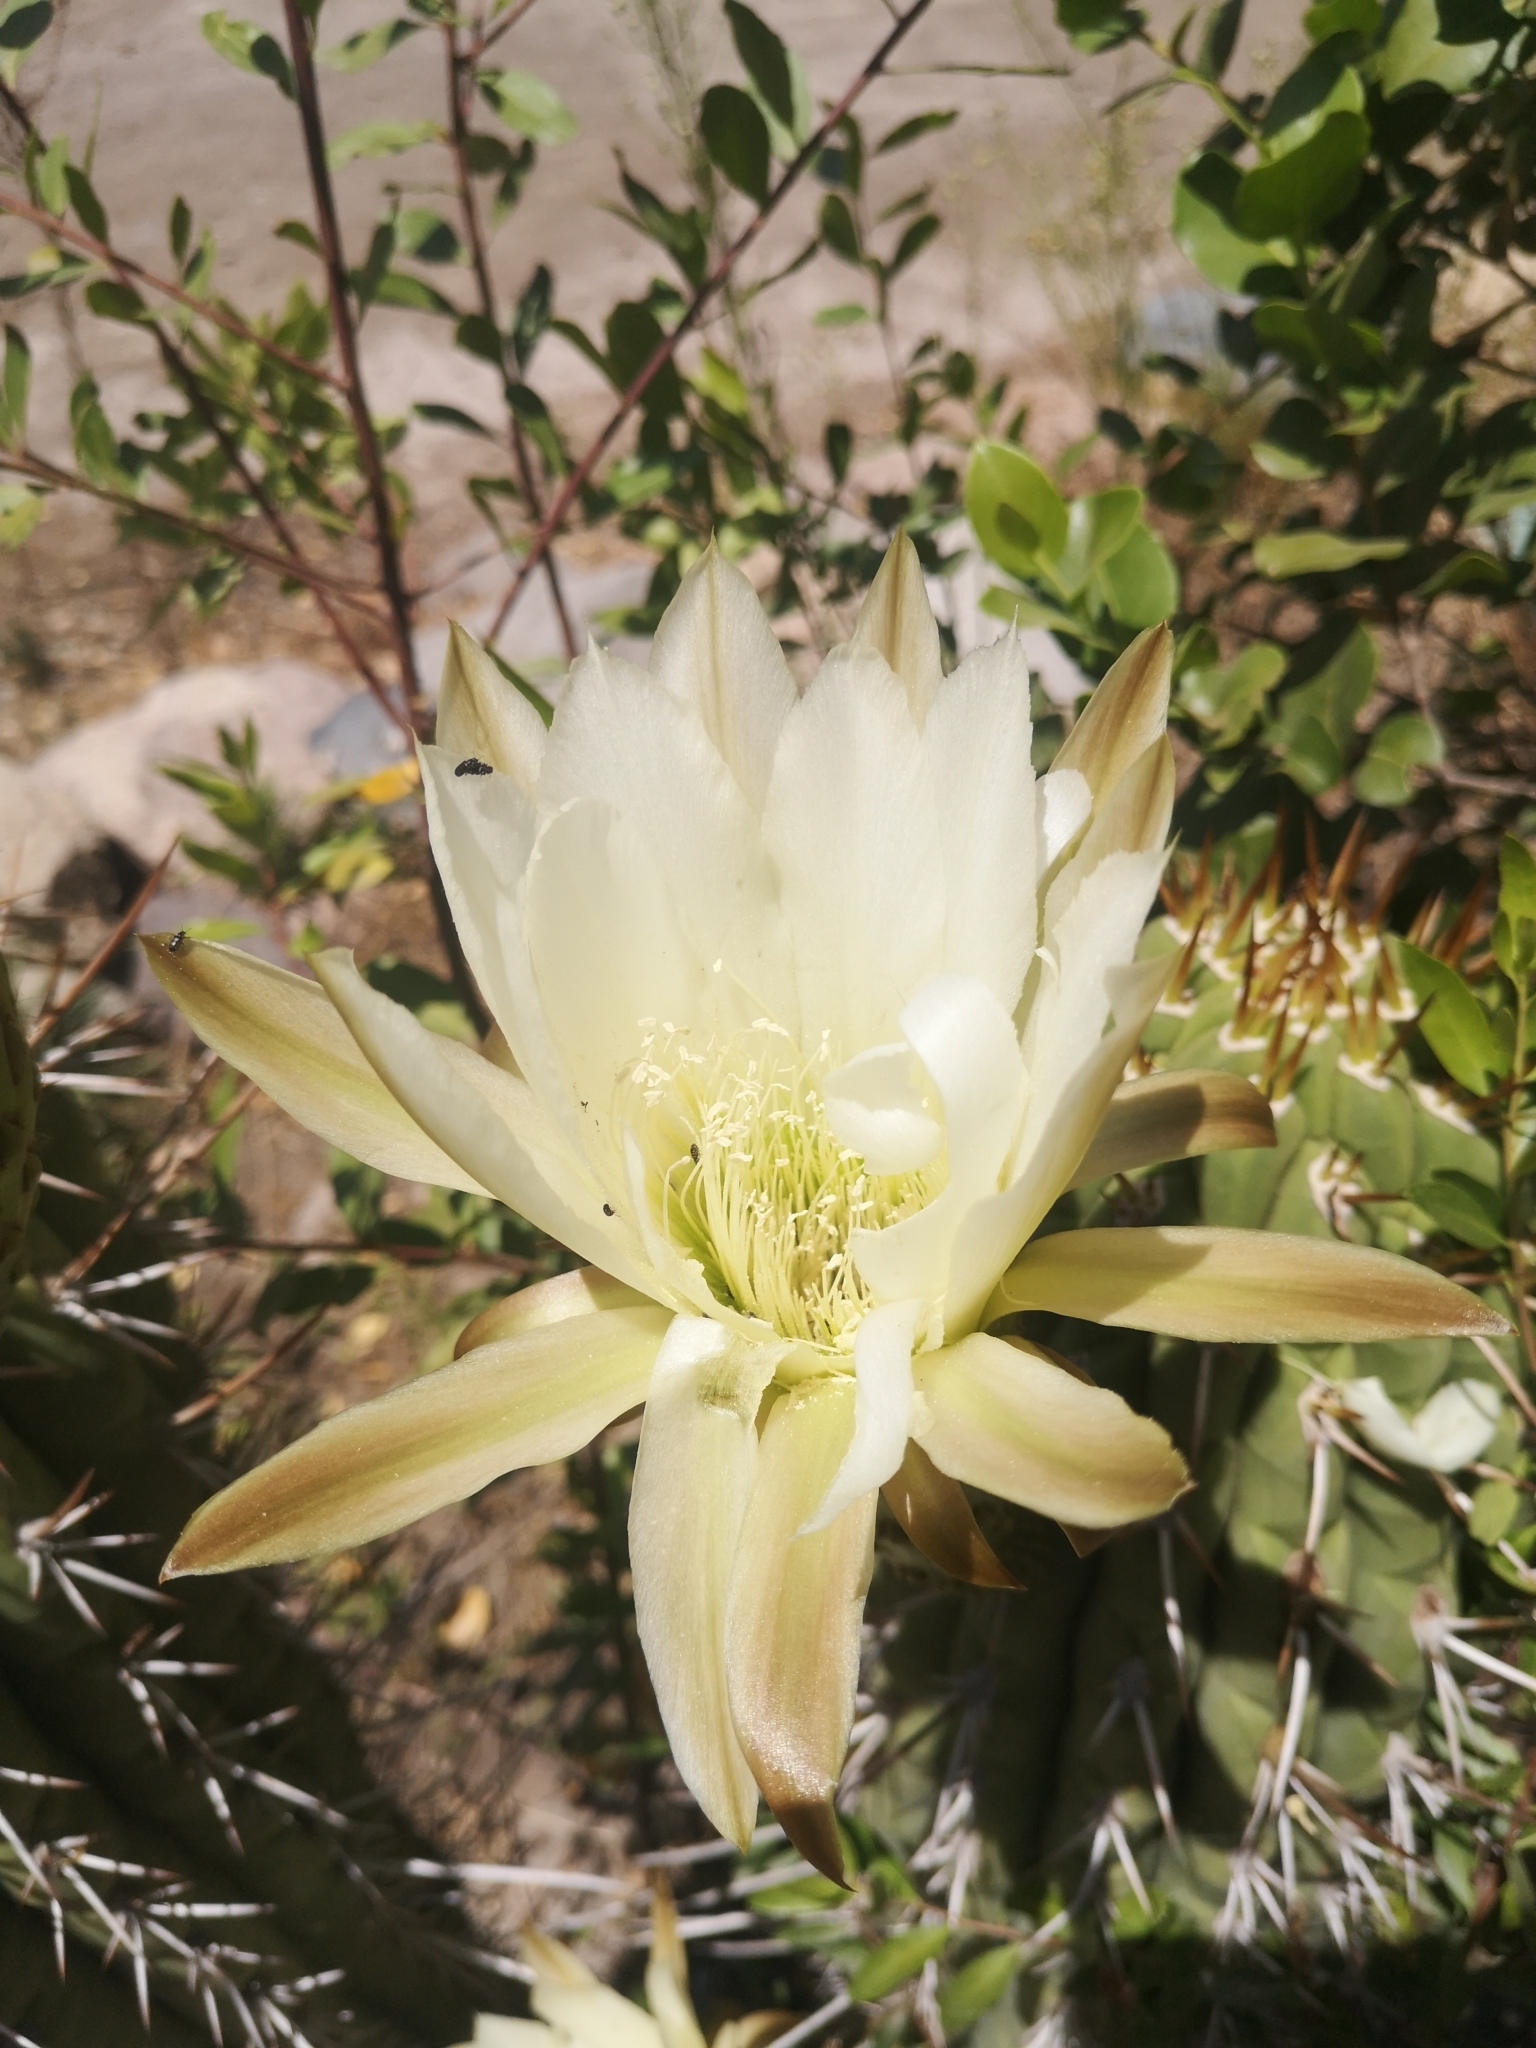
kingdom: Plantae
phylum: Tracheophyta
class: Magnoliopsida
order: Caryophyllales
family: Cactaceae
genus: Leucostele
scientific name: Leucostele chiloensis
